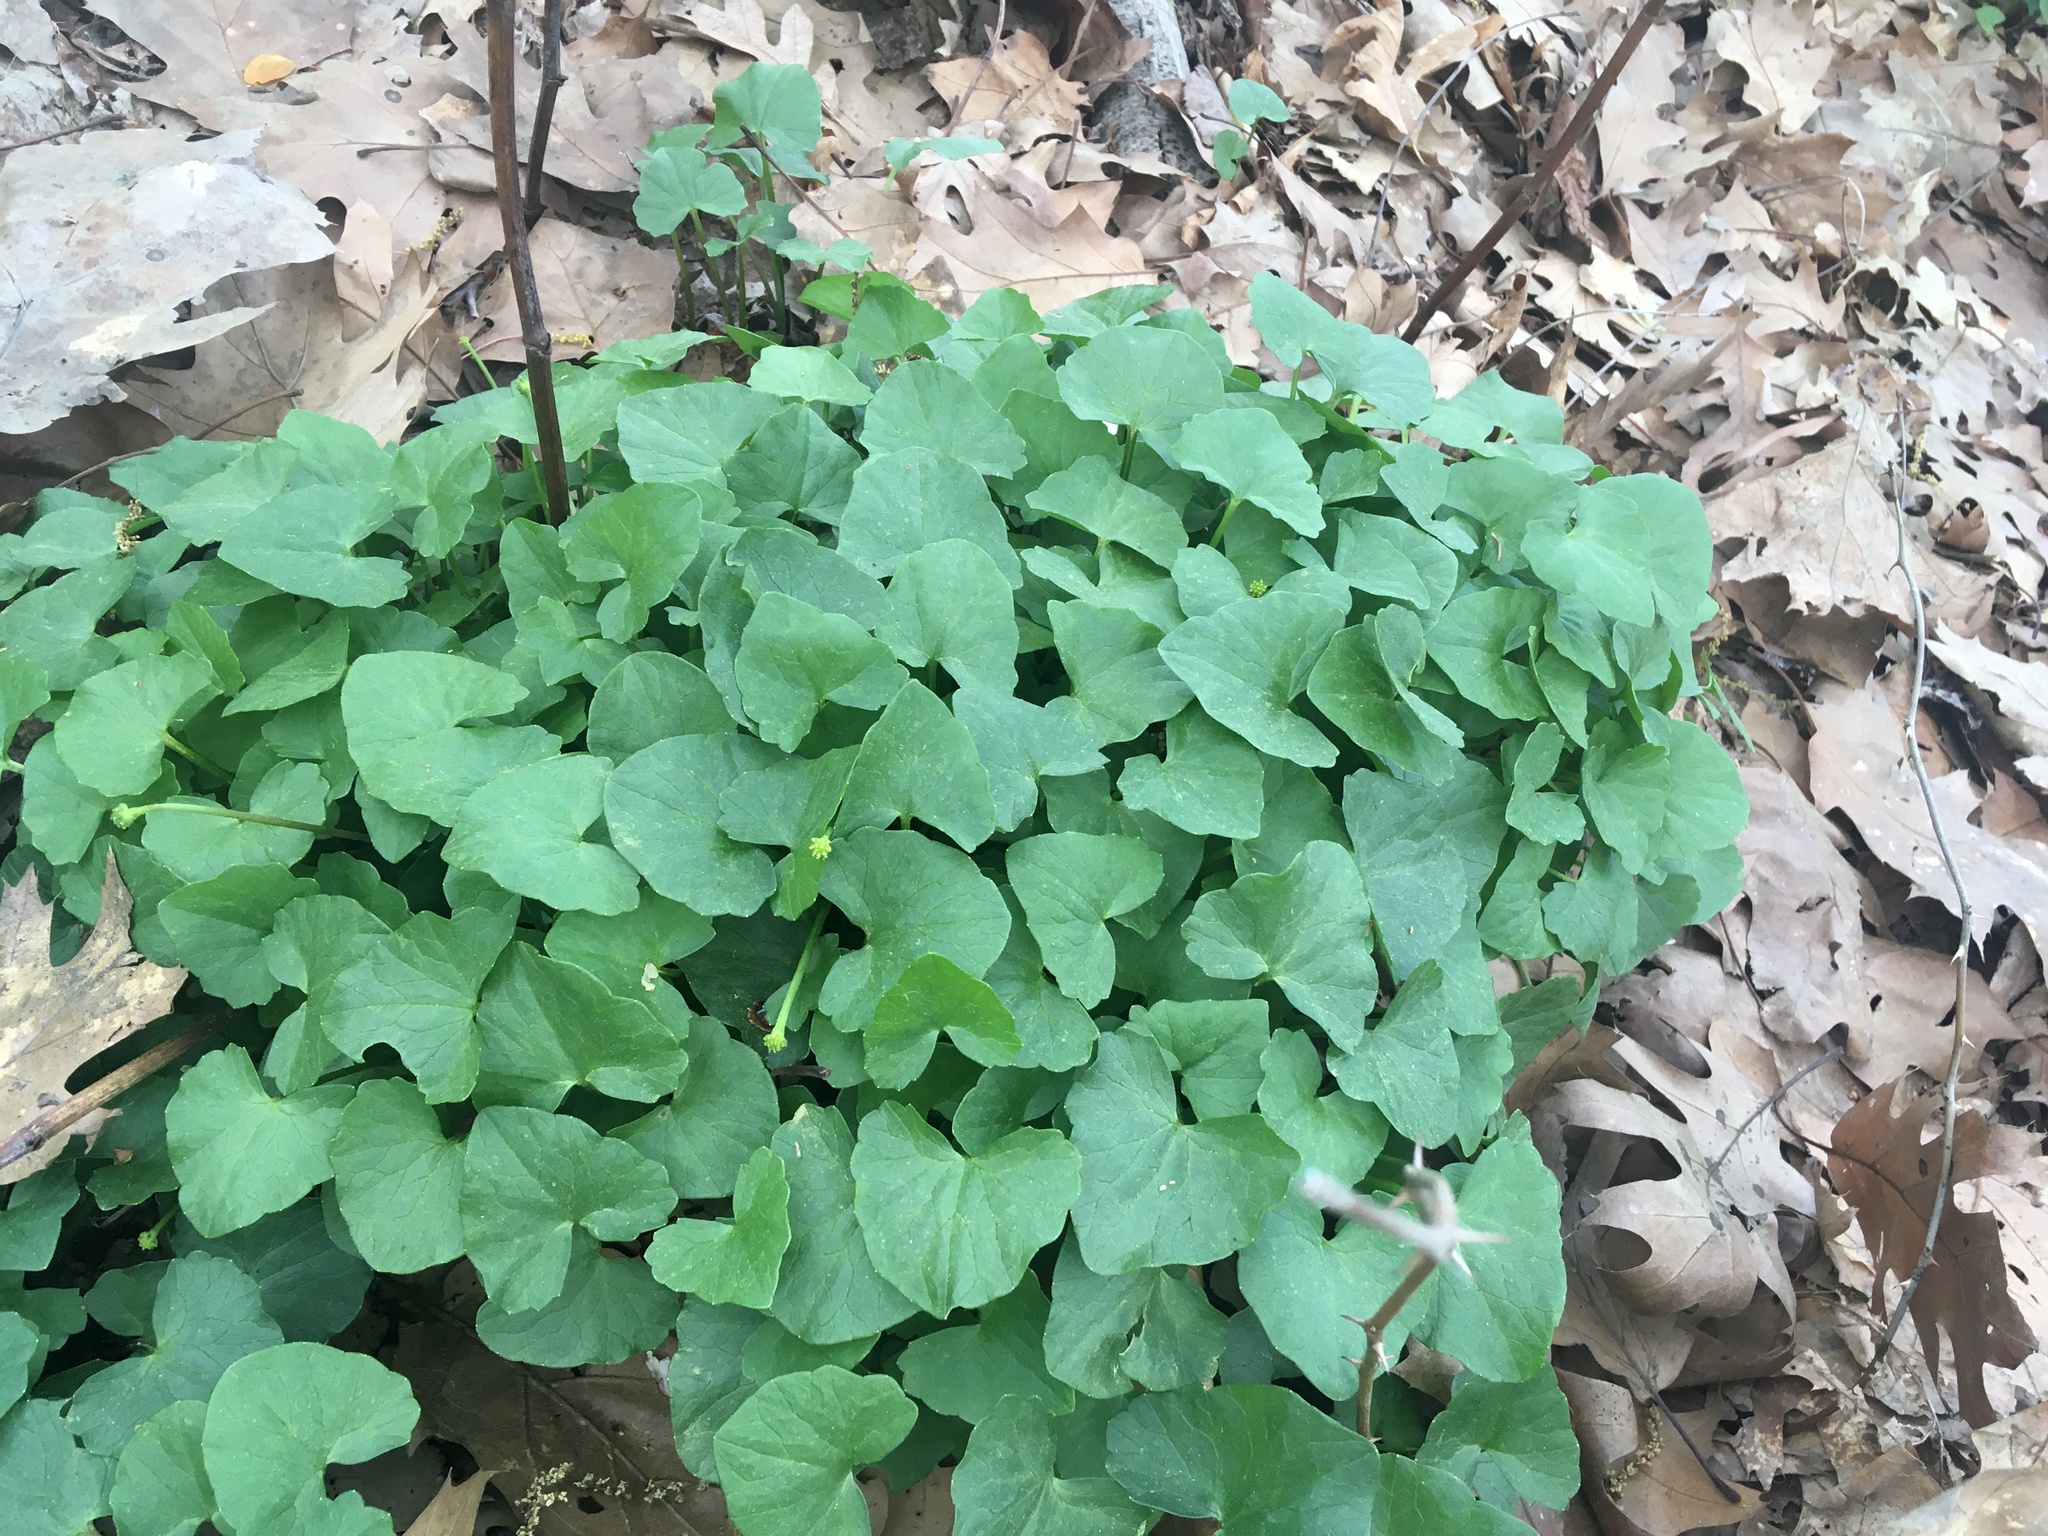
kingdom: Plantae
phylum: Tracheophyta
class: Magnoliopsida
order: Ranunculales
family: Ranunculaceae
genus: Ficaria
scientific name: Ficaria verna
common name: Lesser celandine
